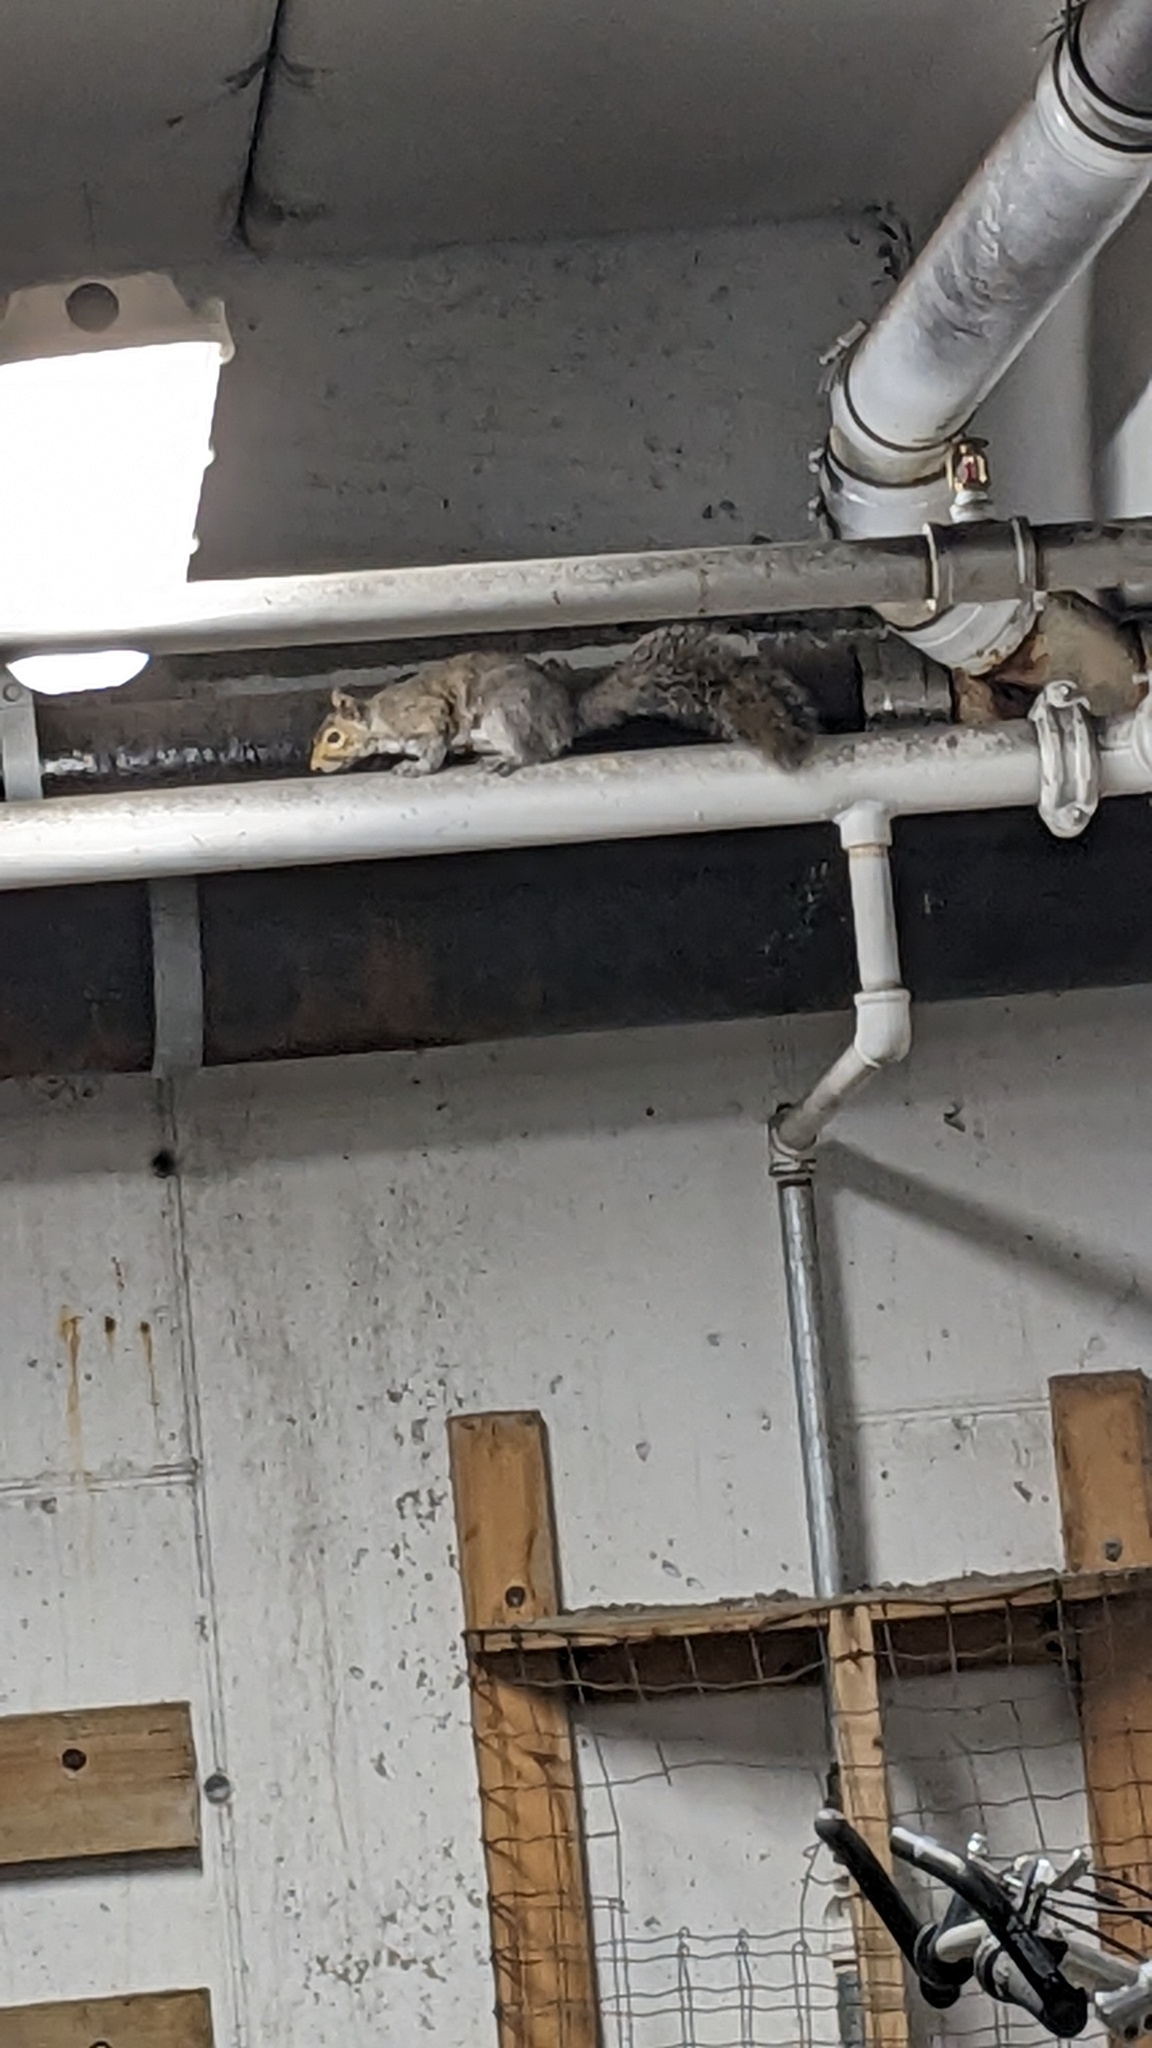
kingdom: Animalia
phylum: Chordata
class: Mammalia
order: Rodentia
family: Sciuridae
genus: Sciurus
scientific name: Sciurus carolinensis
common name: Eastern gray squirrel
